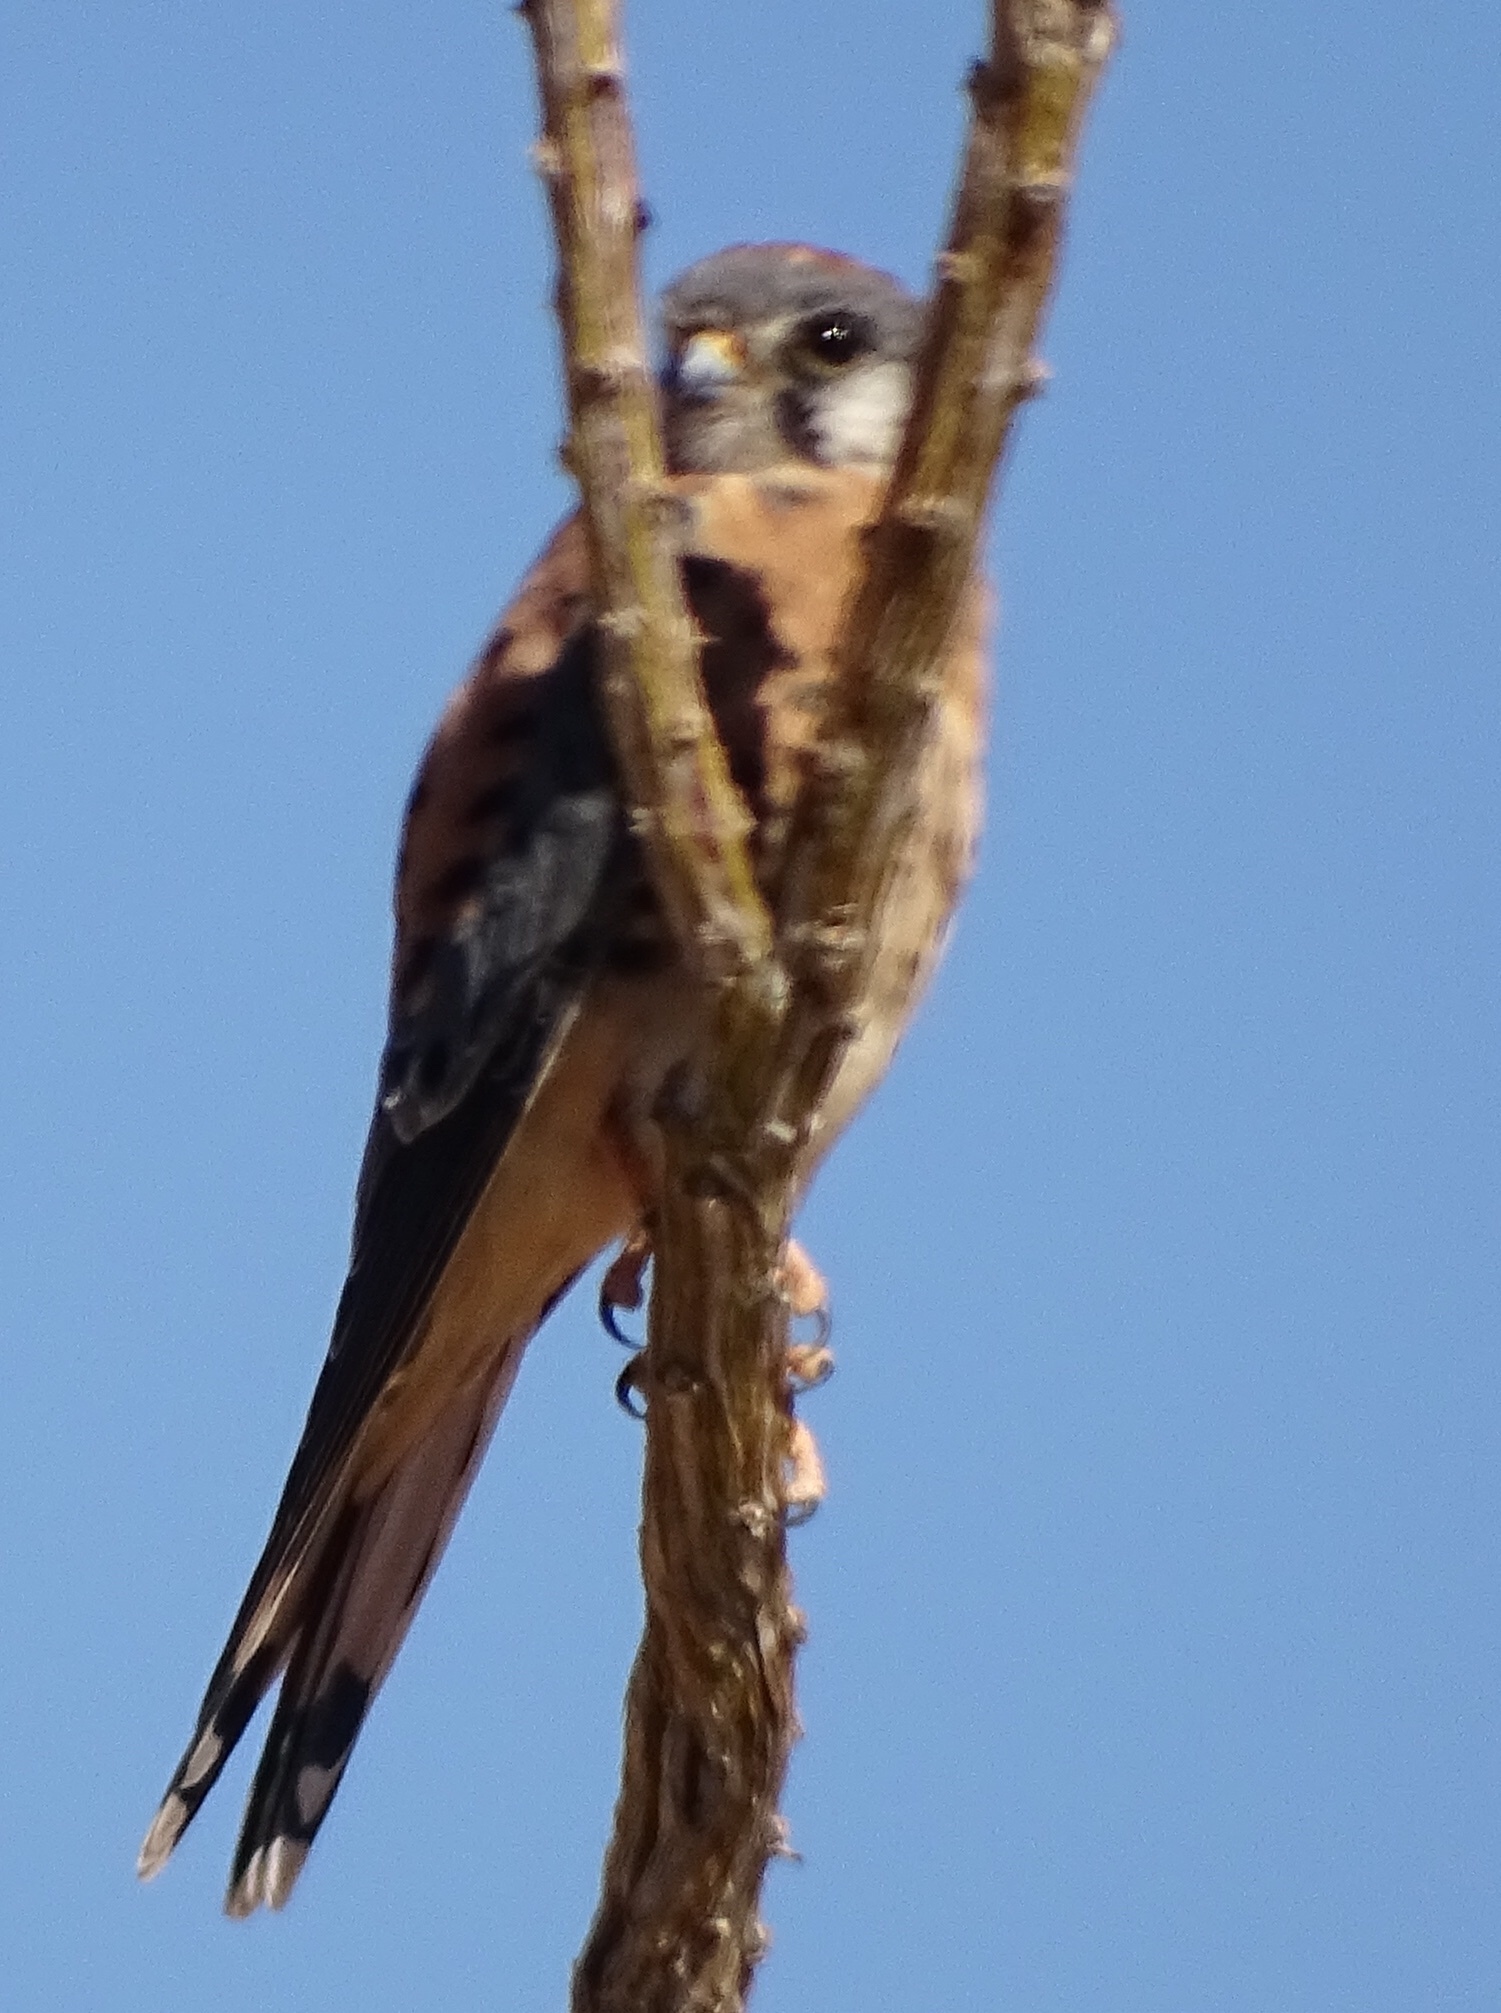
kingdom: Animalia
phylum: Chordata
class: Aves
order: Falconiformes
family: Falconidae
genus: Falco
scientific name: Falco sparverius
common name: American kestrel
